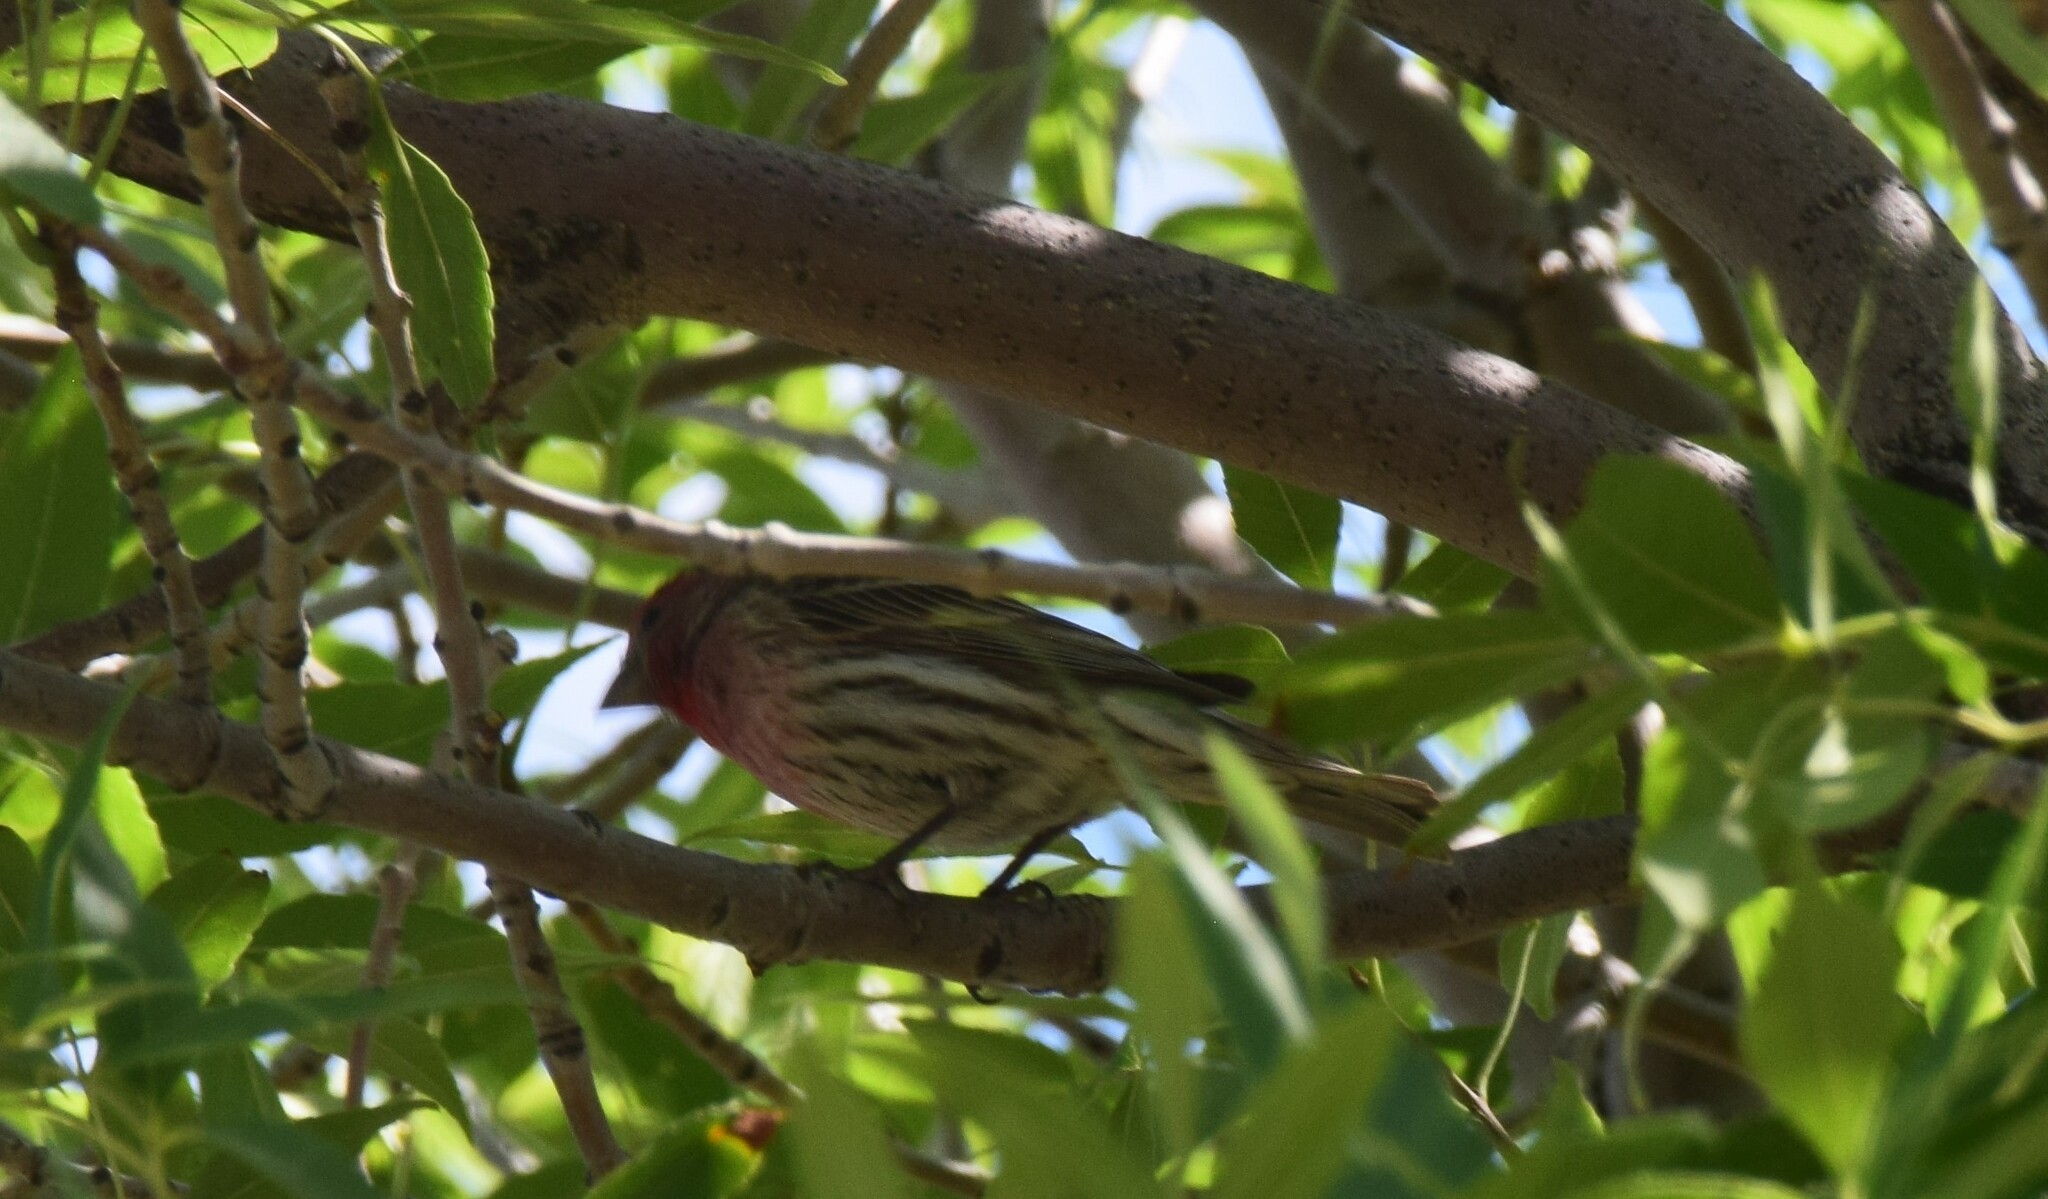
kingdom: Animalia
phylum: Chordata
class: Aves
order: Passeriformes
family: Fringillidae
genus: Haemorhous
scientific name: Haemorhous mexicanus
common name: House finch
